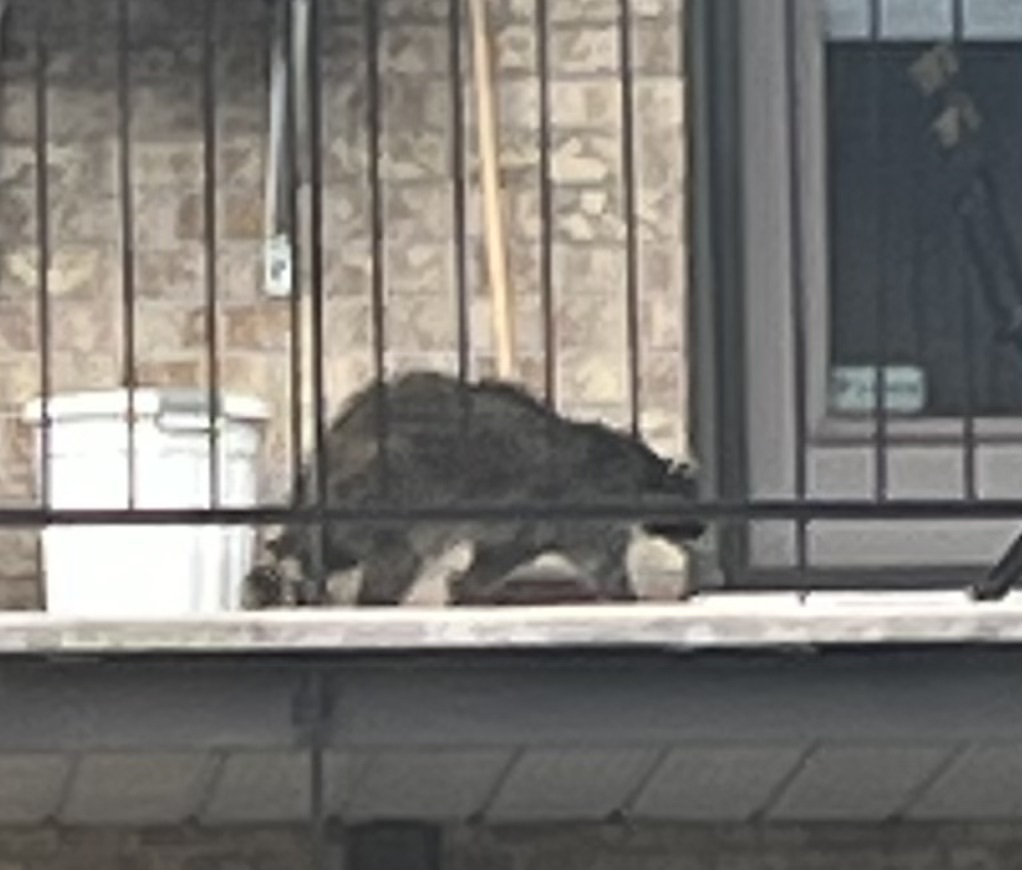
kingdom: Animalia
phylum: Chordata
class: Mammalia
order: Carnivora
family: Procyonidae
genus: Procyon
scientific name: Procyon lotor
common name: Raccoon
